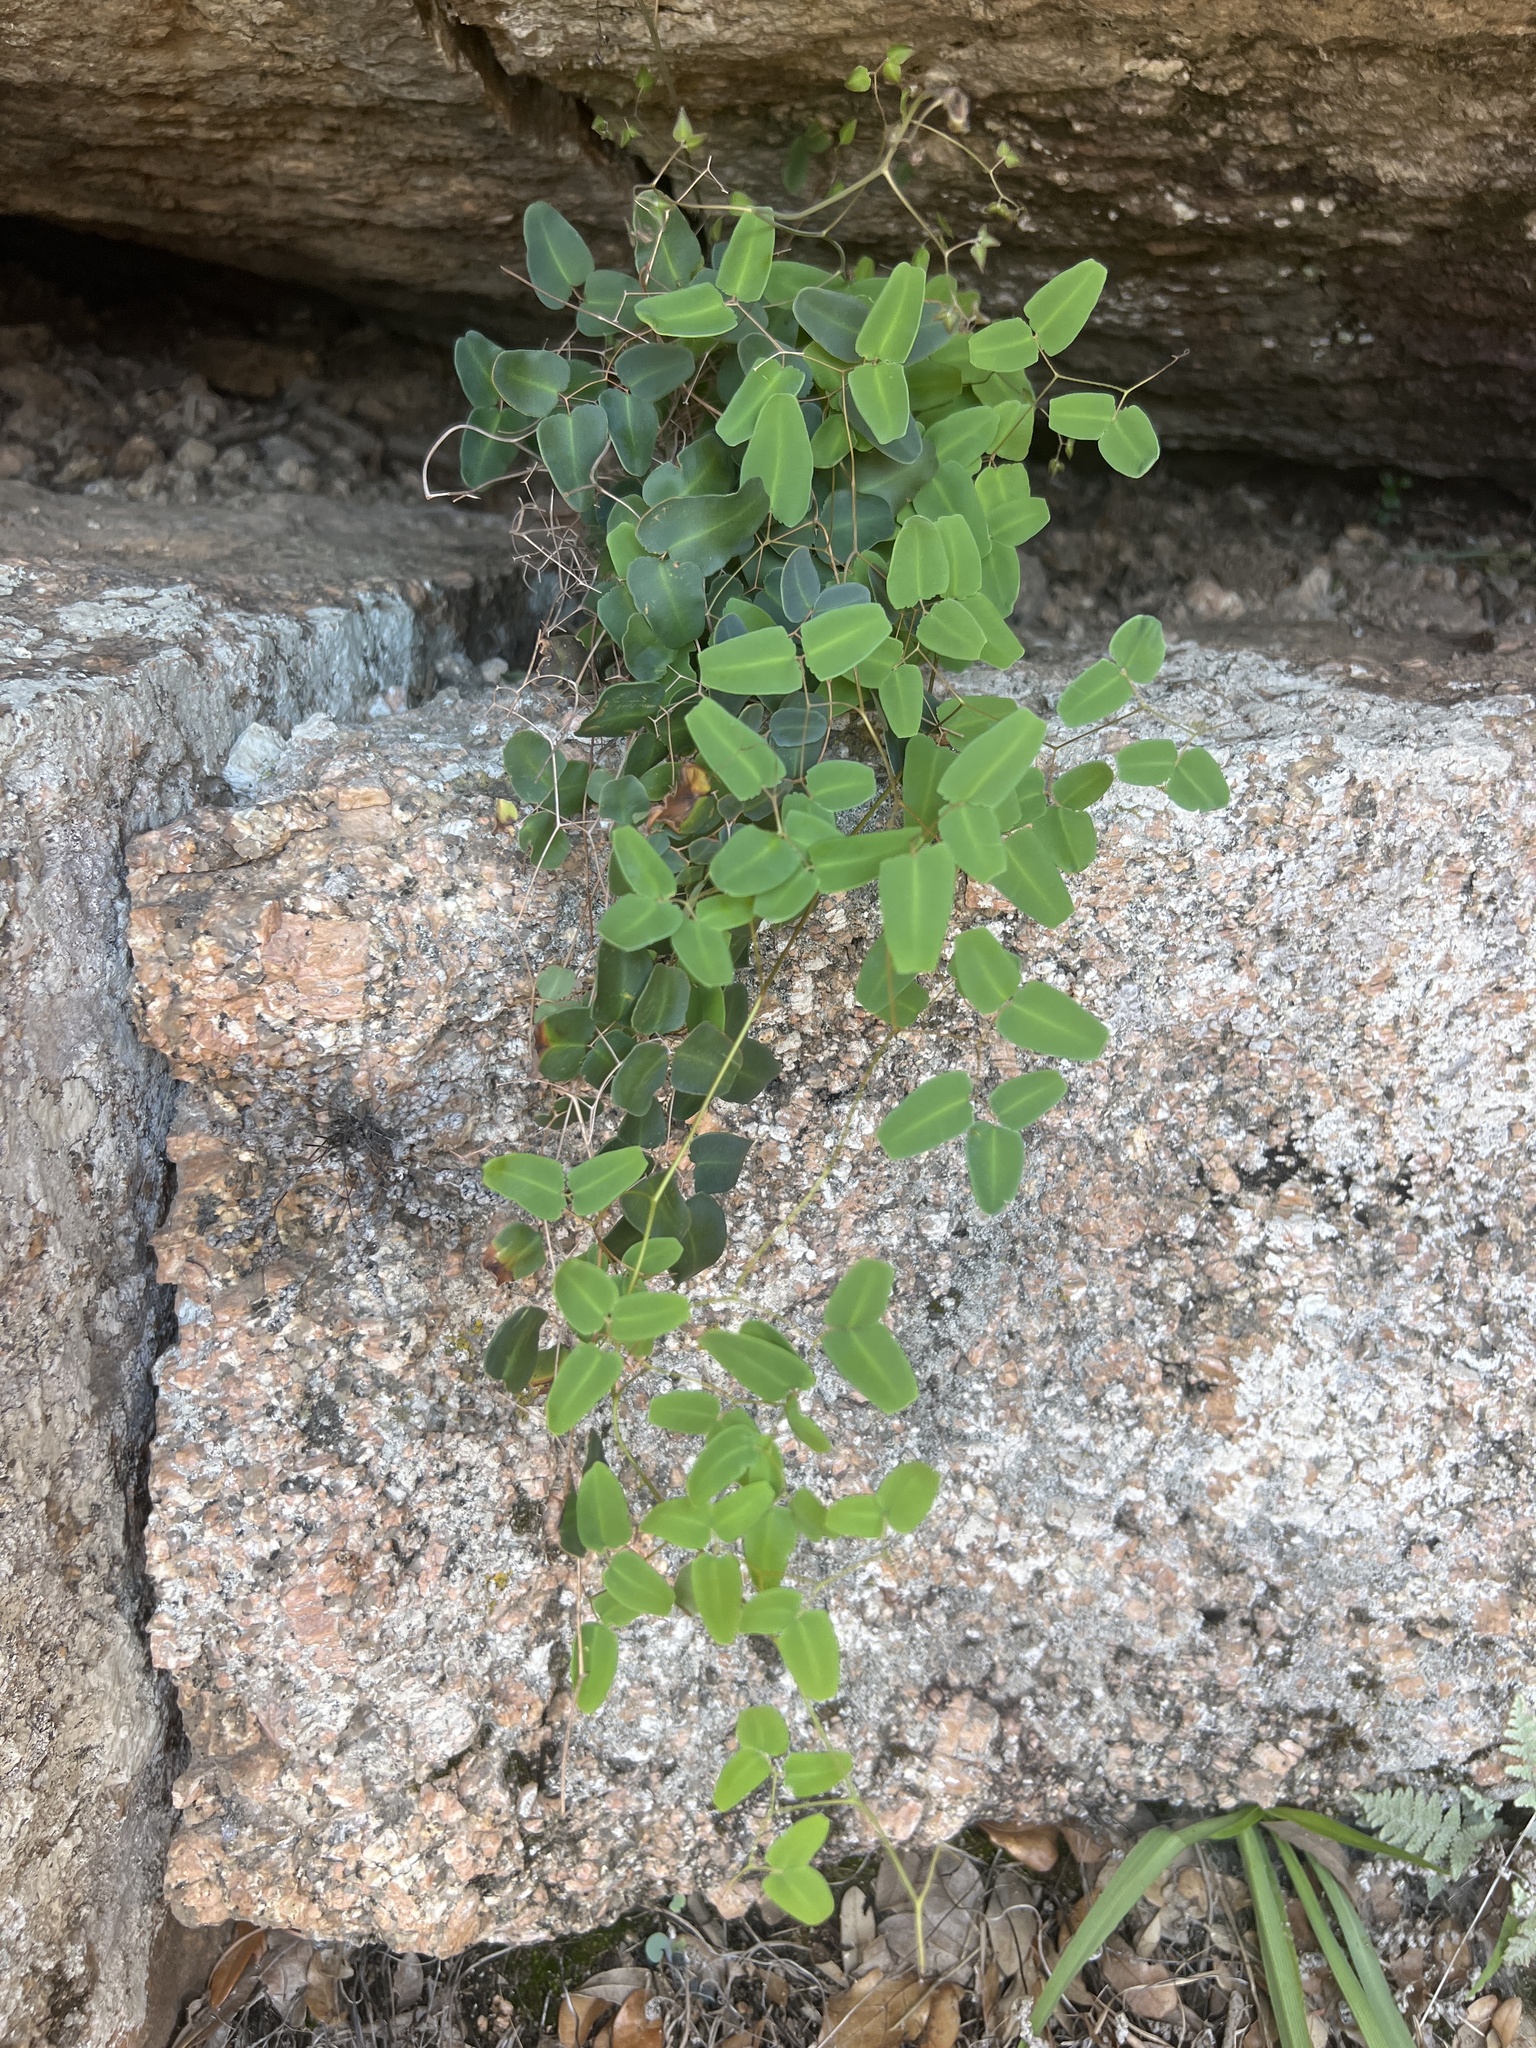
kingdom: Plantae
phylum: Tracheophyta
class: Polypodiopsida
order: Polypodiales
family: Pteridaceae
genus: Pellaea
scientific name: Pellaea ovata
